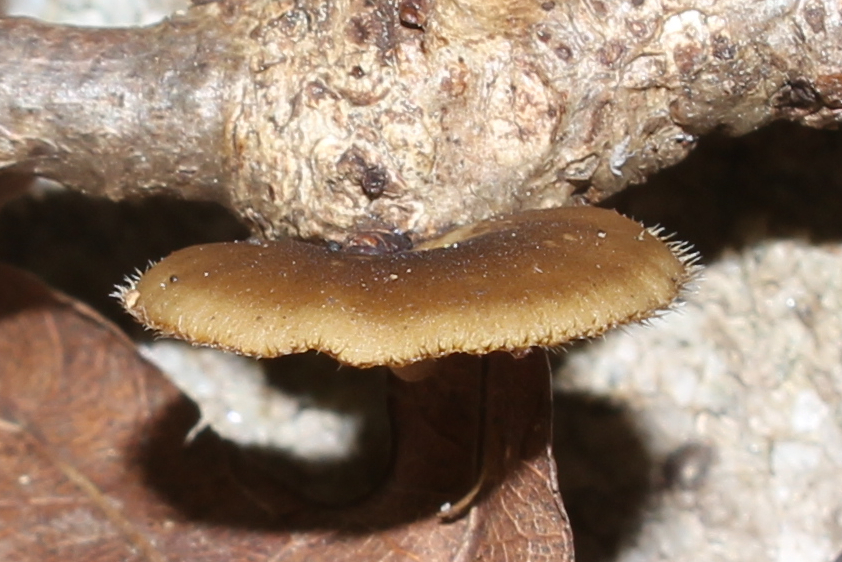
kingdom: Fungi
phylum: Basidiomycota
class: Agaricomycetes
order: Polyporales
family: Polyporaceae
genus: Lentinus
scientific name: Lentinus brumalis
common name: Winter polypore
